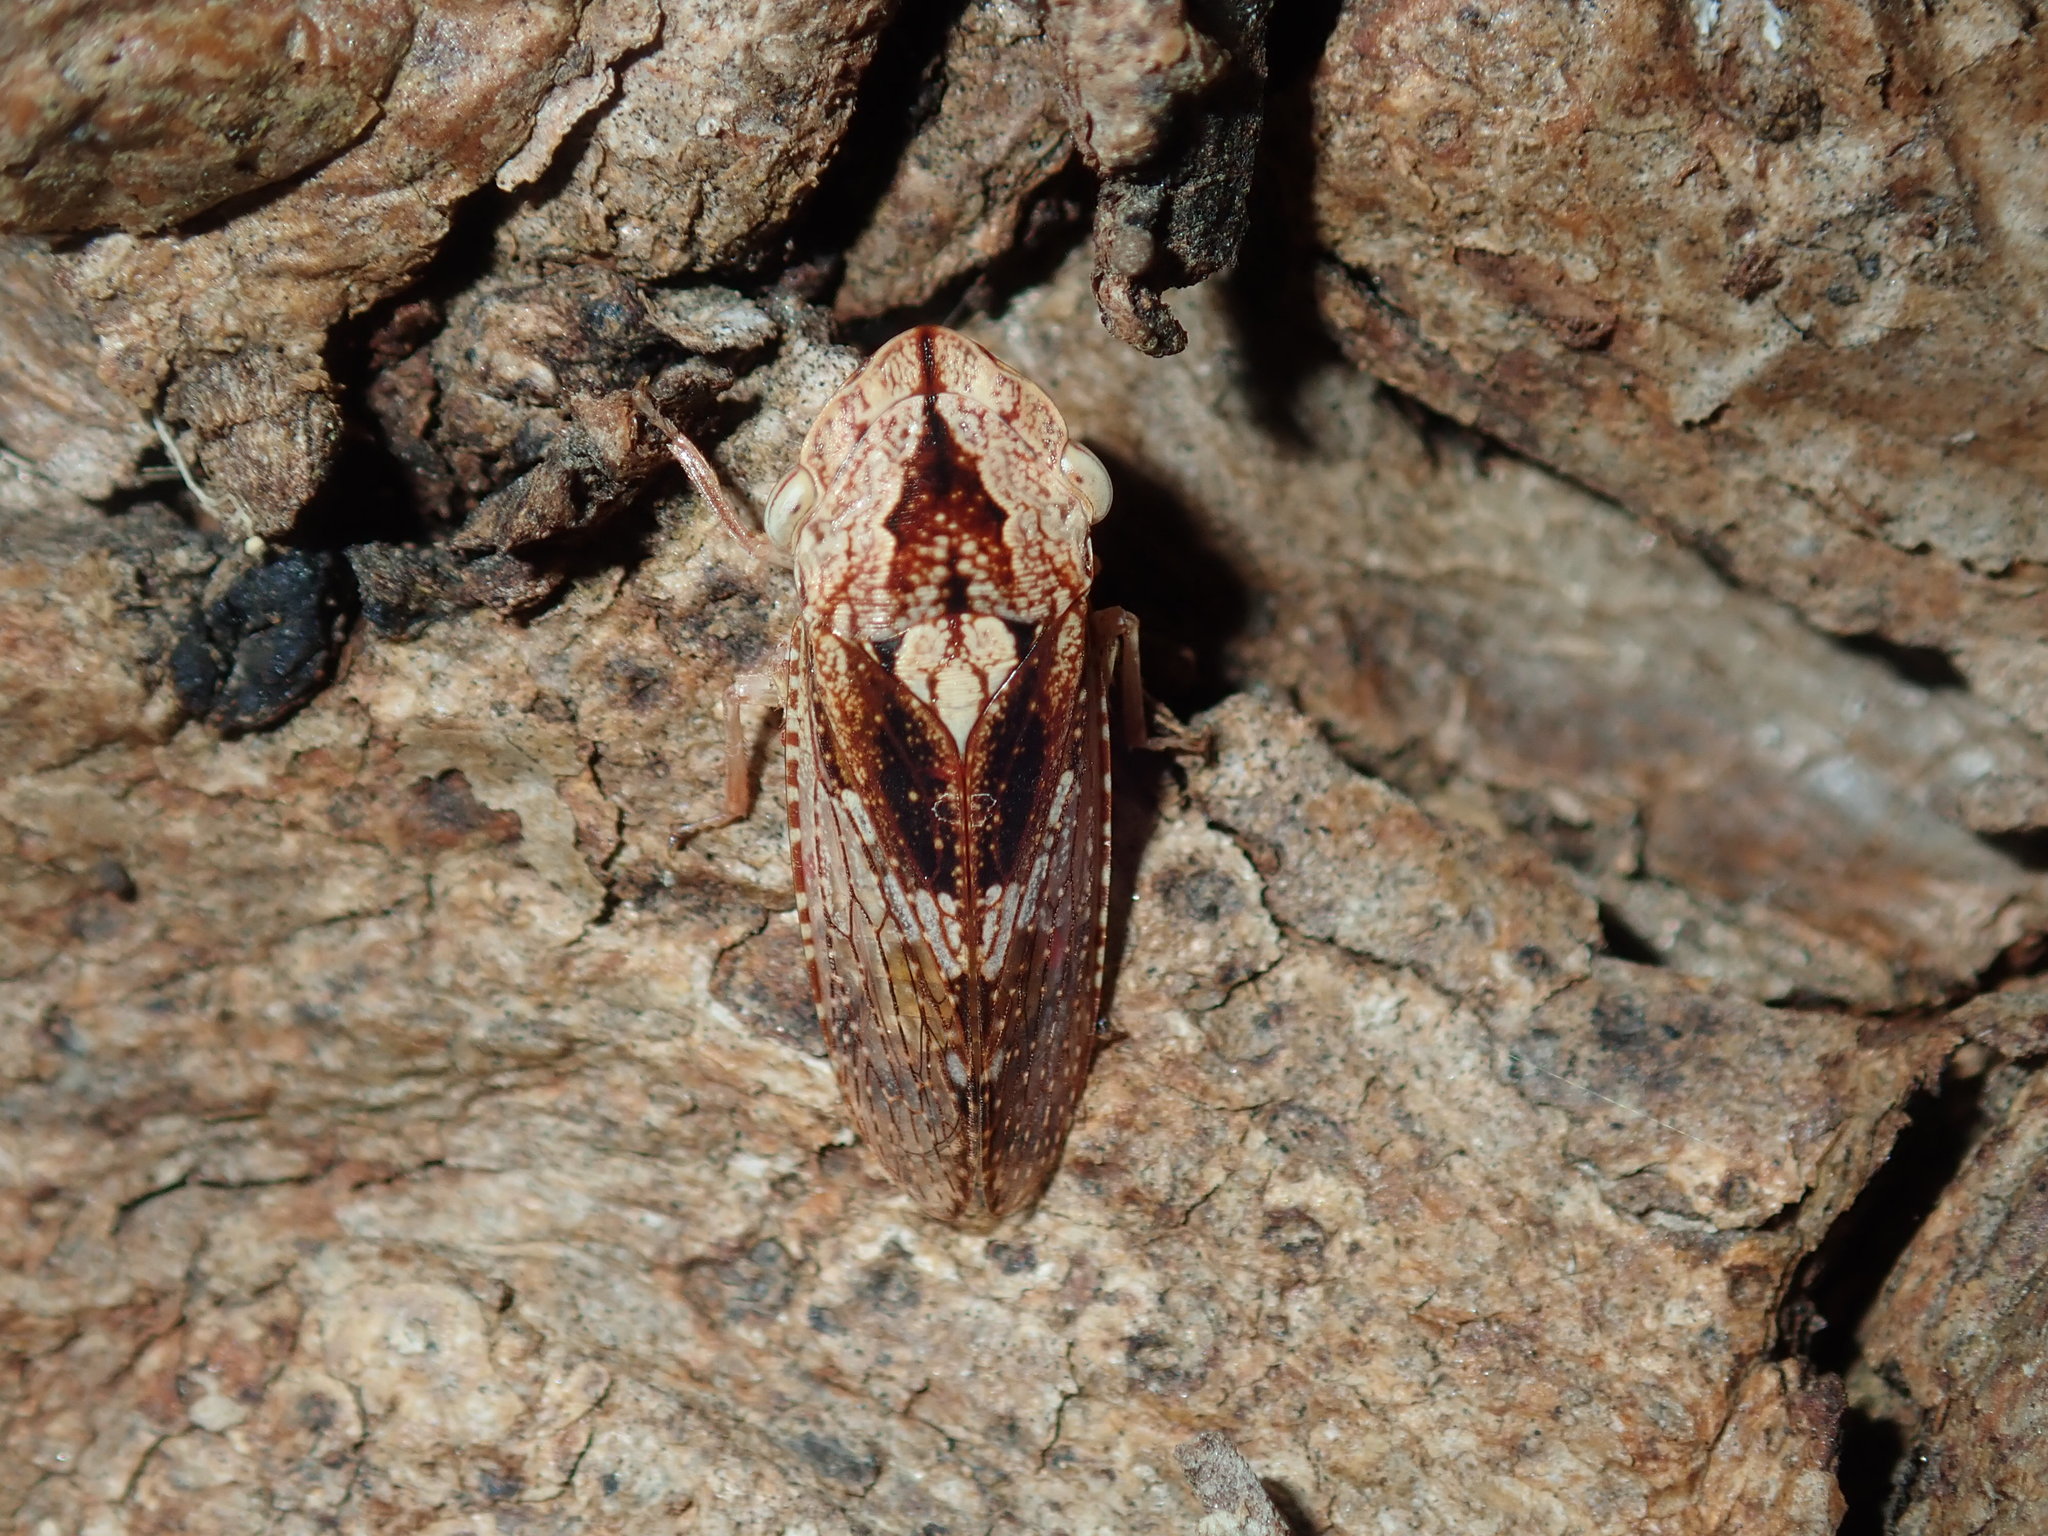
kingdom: Animalia
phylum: Arthropoda
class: Insecta
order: Hemiptera
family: Cicadellidae
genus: Stenocotis
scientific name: Stenocotis depressa
